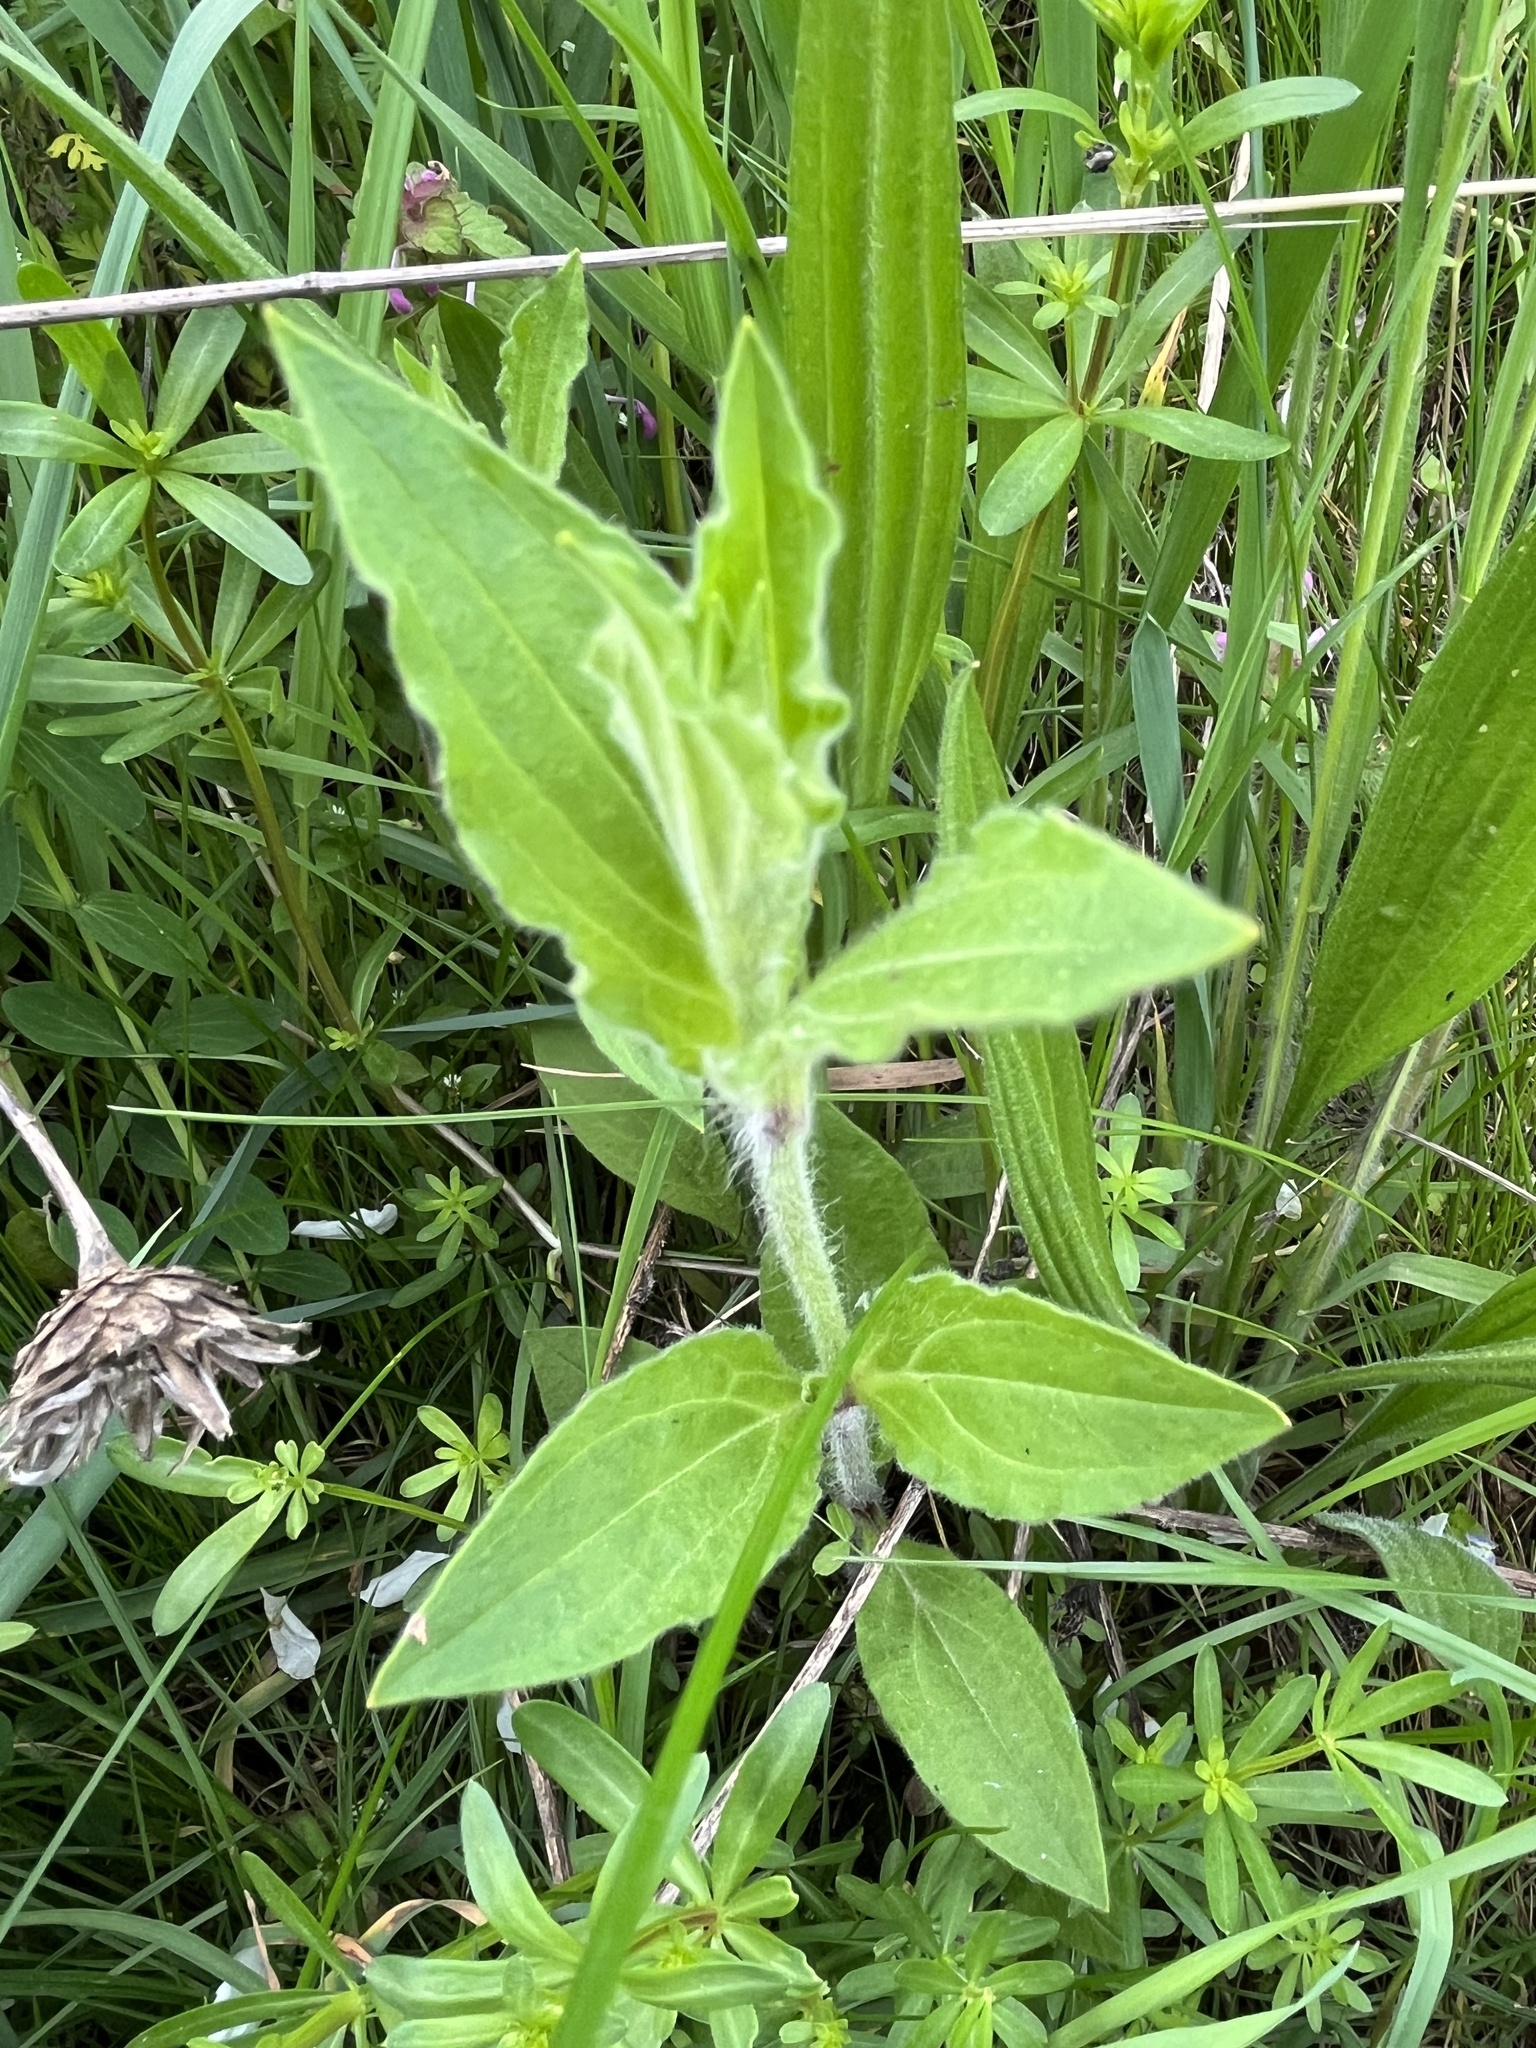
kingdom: Plantae
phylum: Tracheophyta
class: Magnoliopsida
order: Caryophyllales
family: Caryophyllaceae
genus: Silene
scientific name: Silene latifolia
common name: White campion
